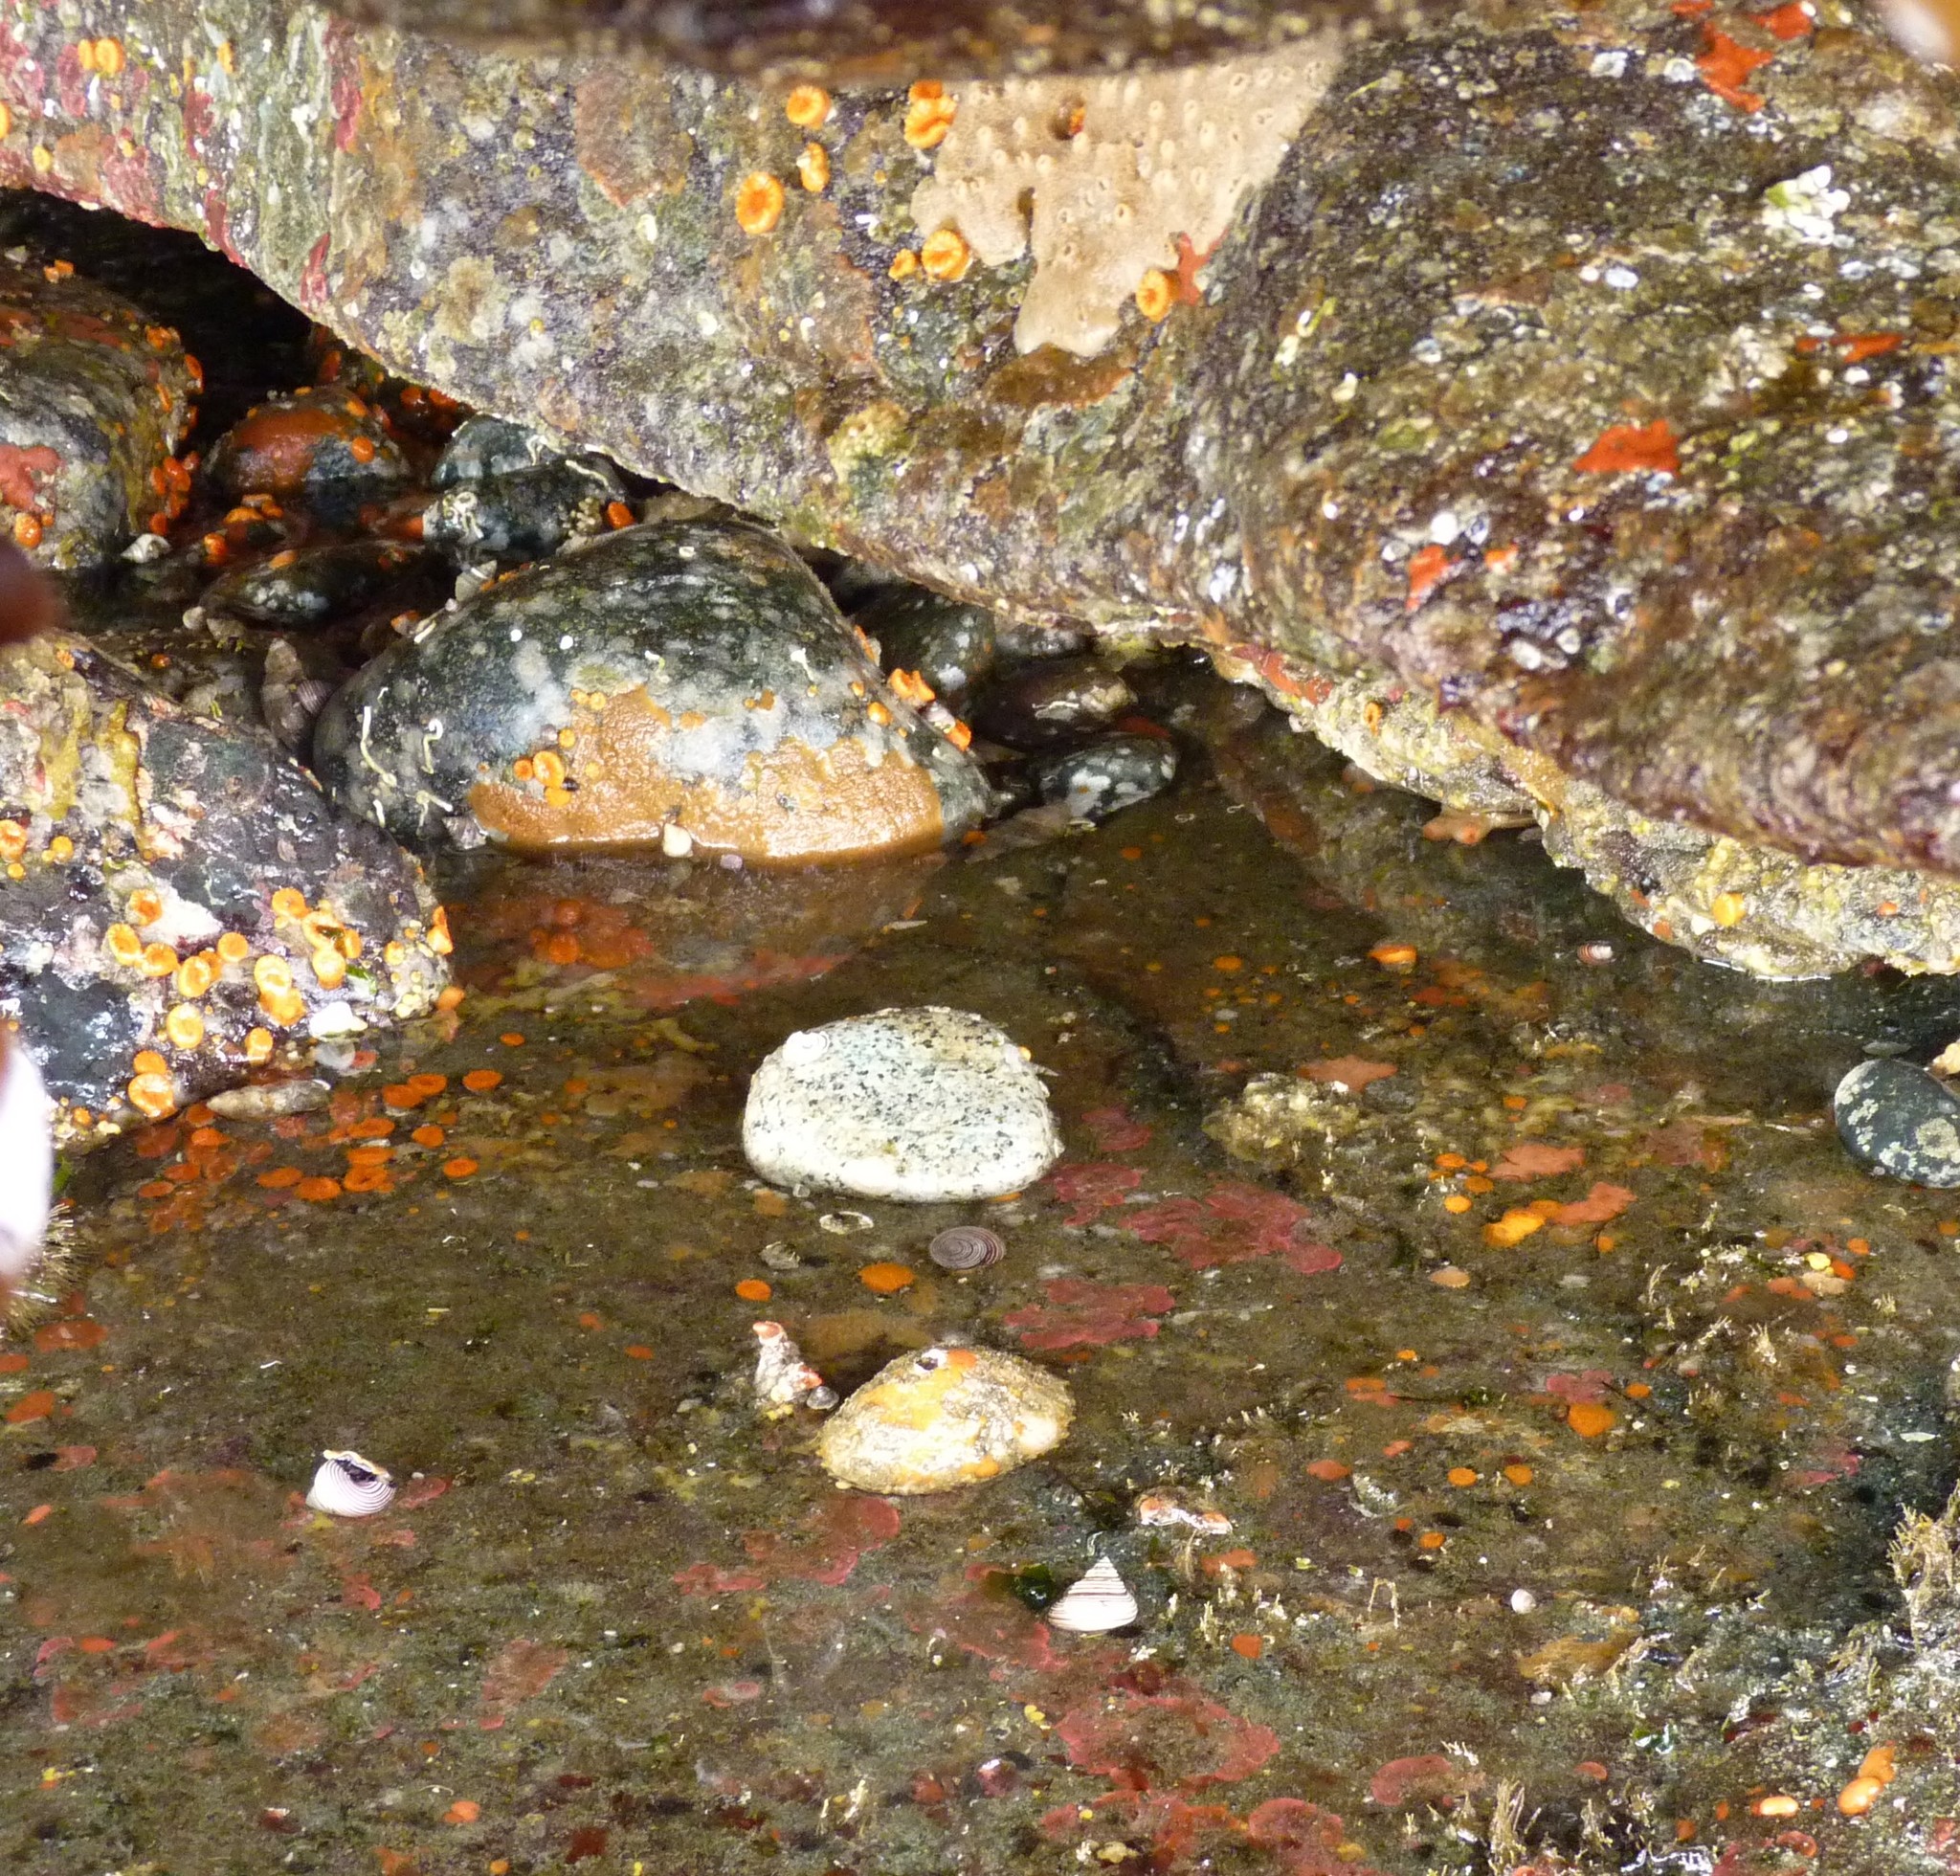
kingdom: Animalia
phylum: Mollusca
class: Gastropoda
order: Lepetellida
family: Fissurellidae
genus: Diodora
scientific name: Diodora aspera
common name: Rough keyhole limpet
